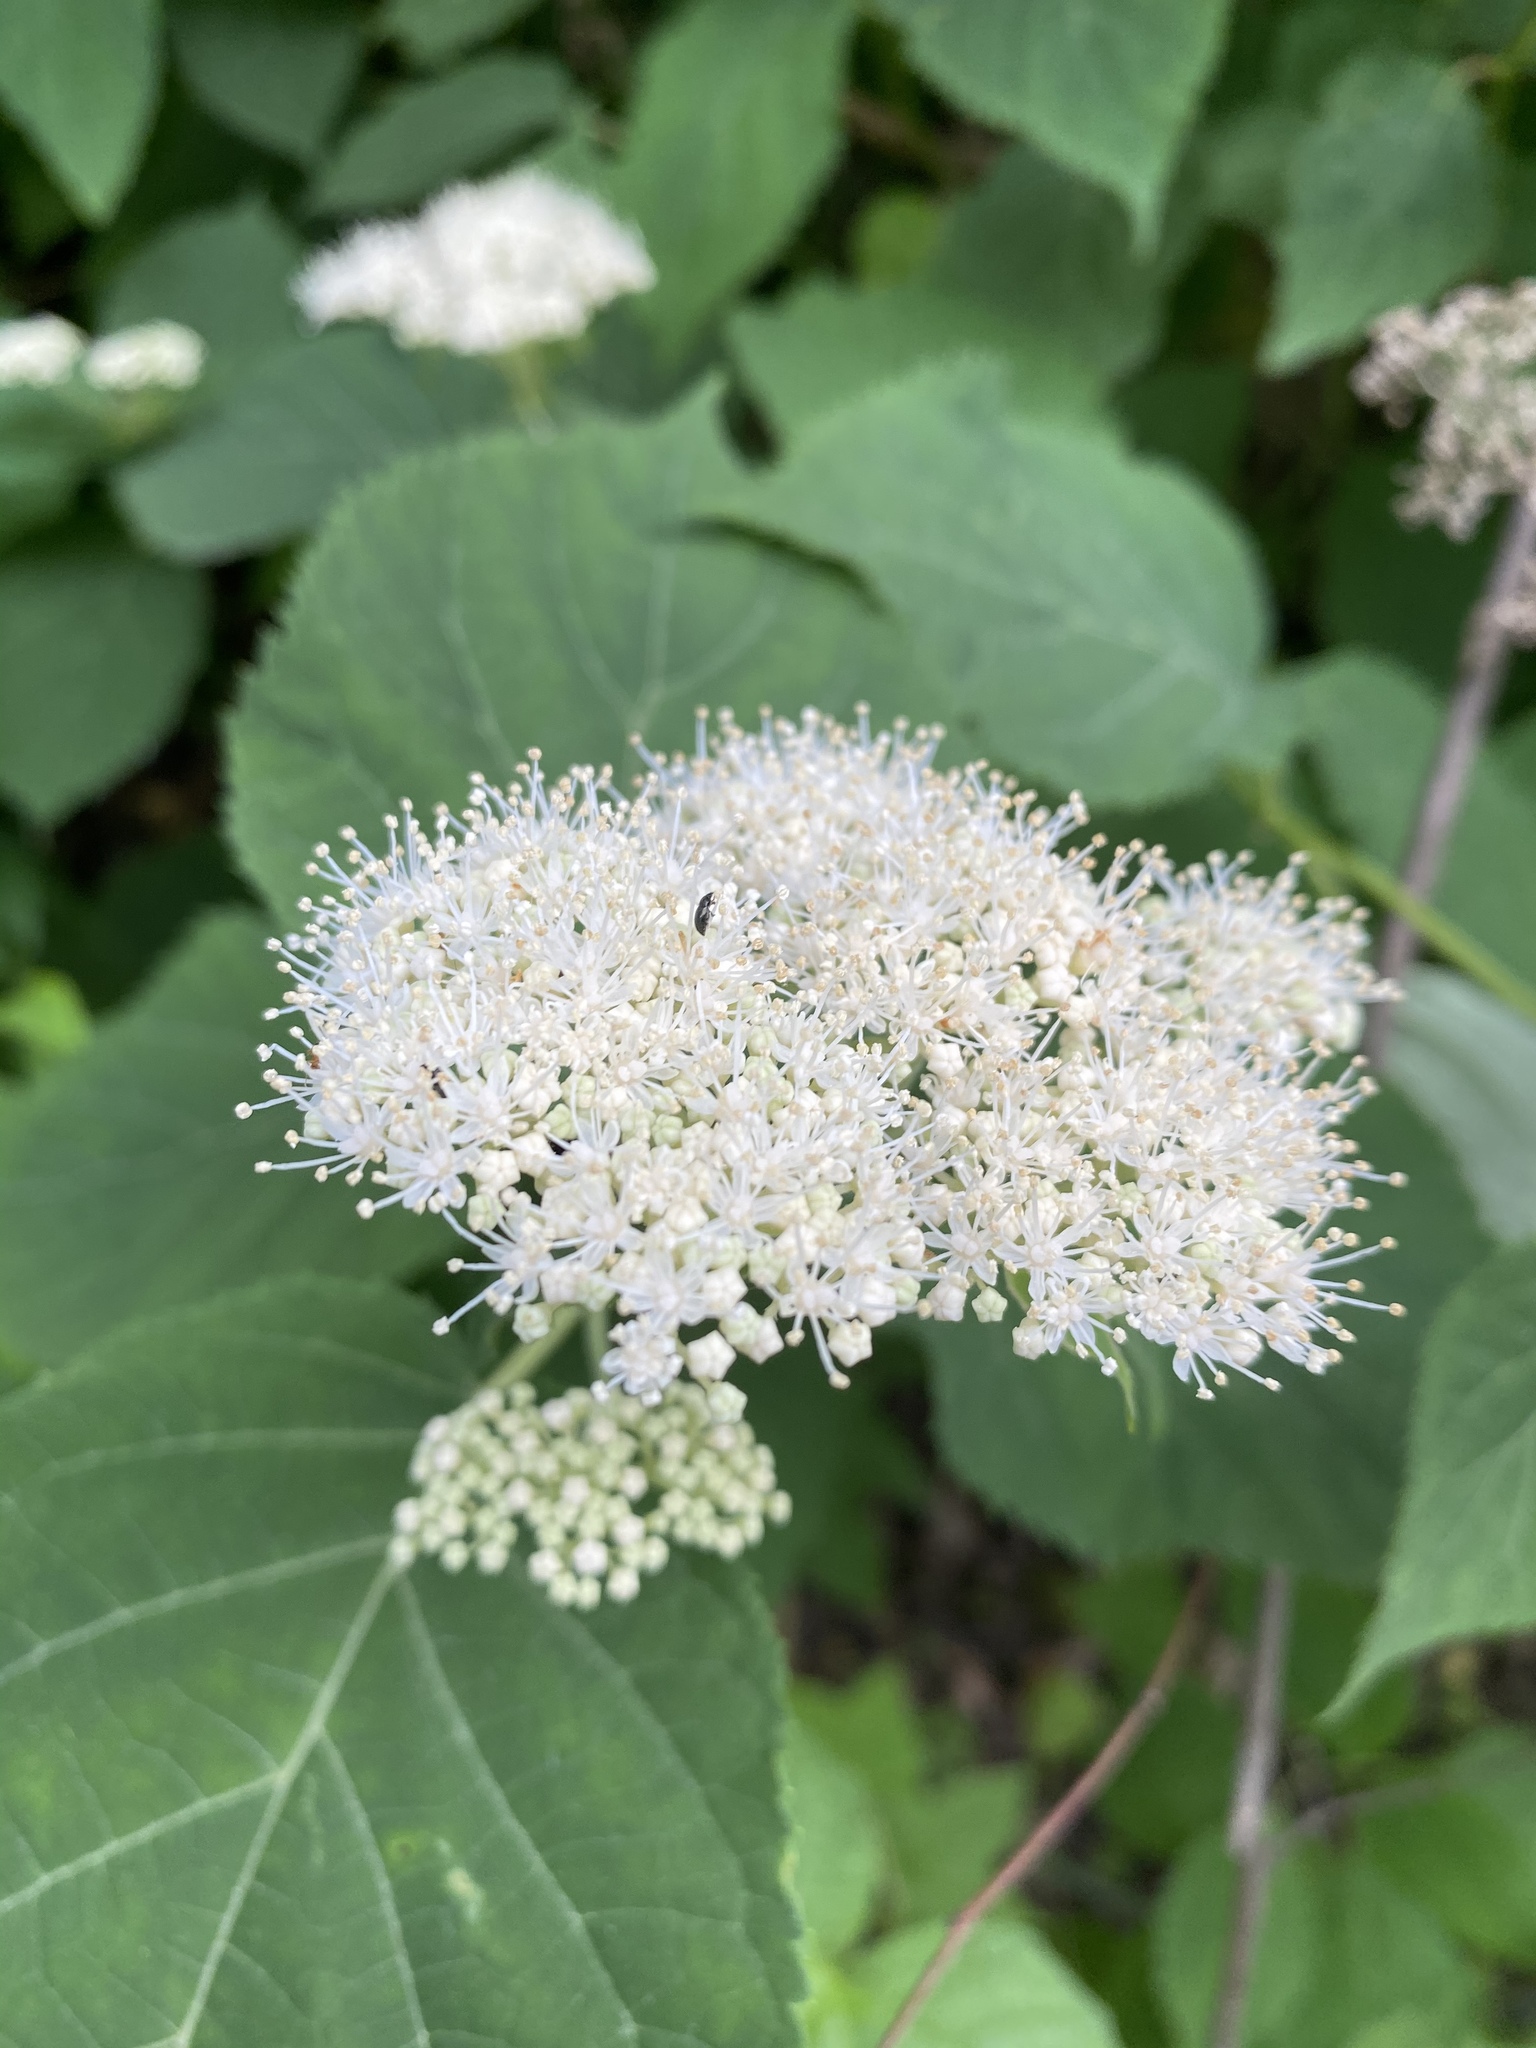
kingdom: Plantae
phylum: Tracheophyta
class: Magnoliopsida
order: Cornales
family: Hydrangeaceae
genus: Hydrangea
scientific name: Hydrangea arborescens
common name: Sevenbark
